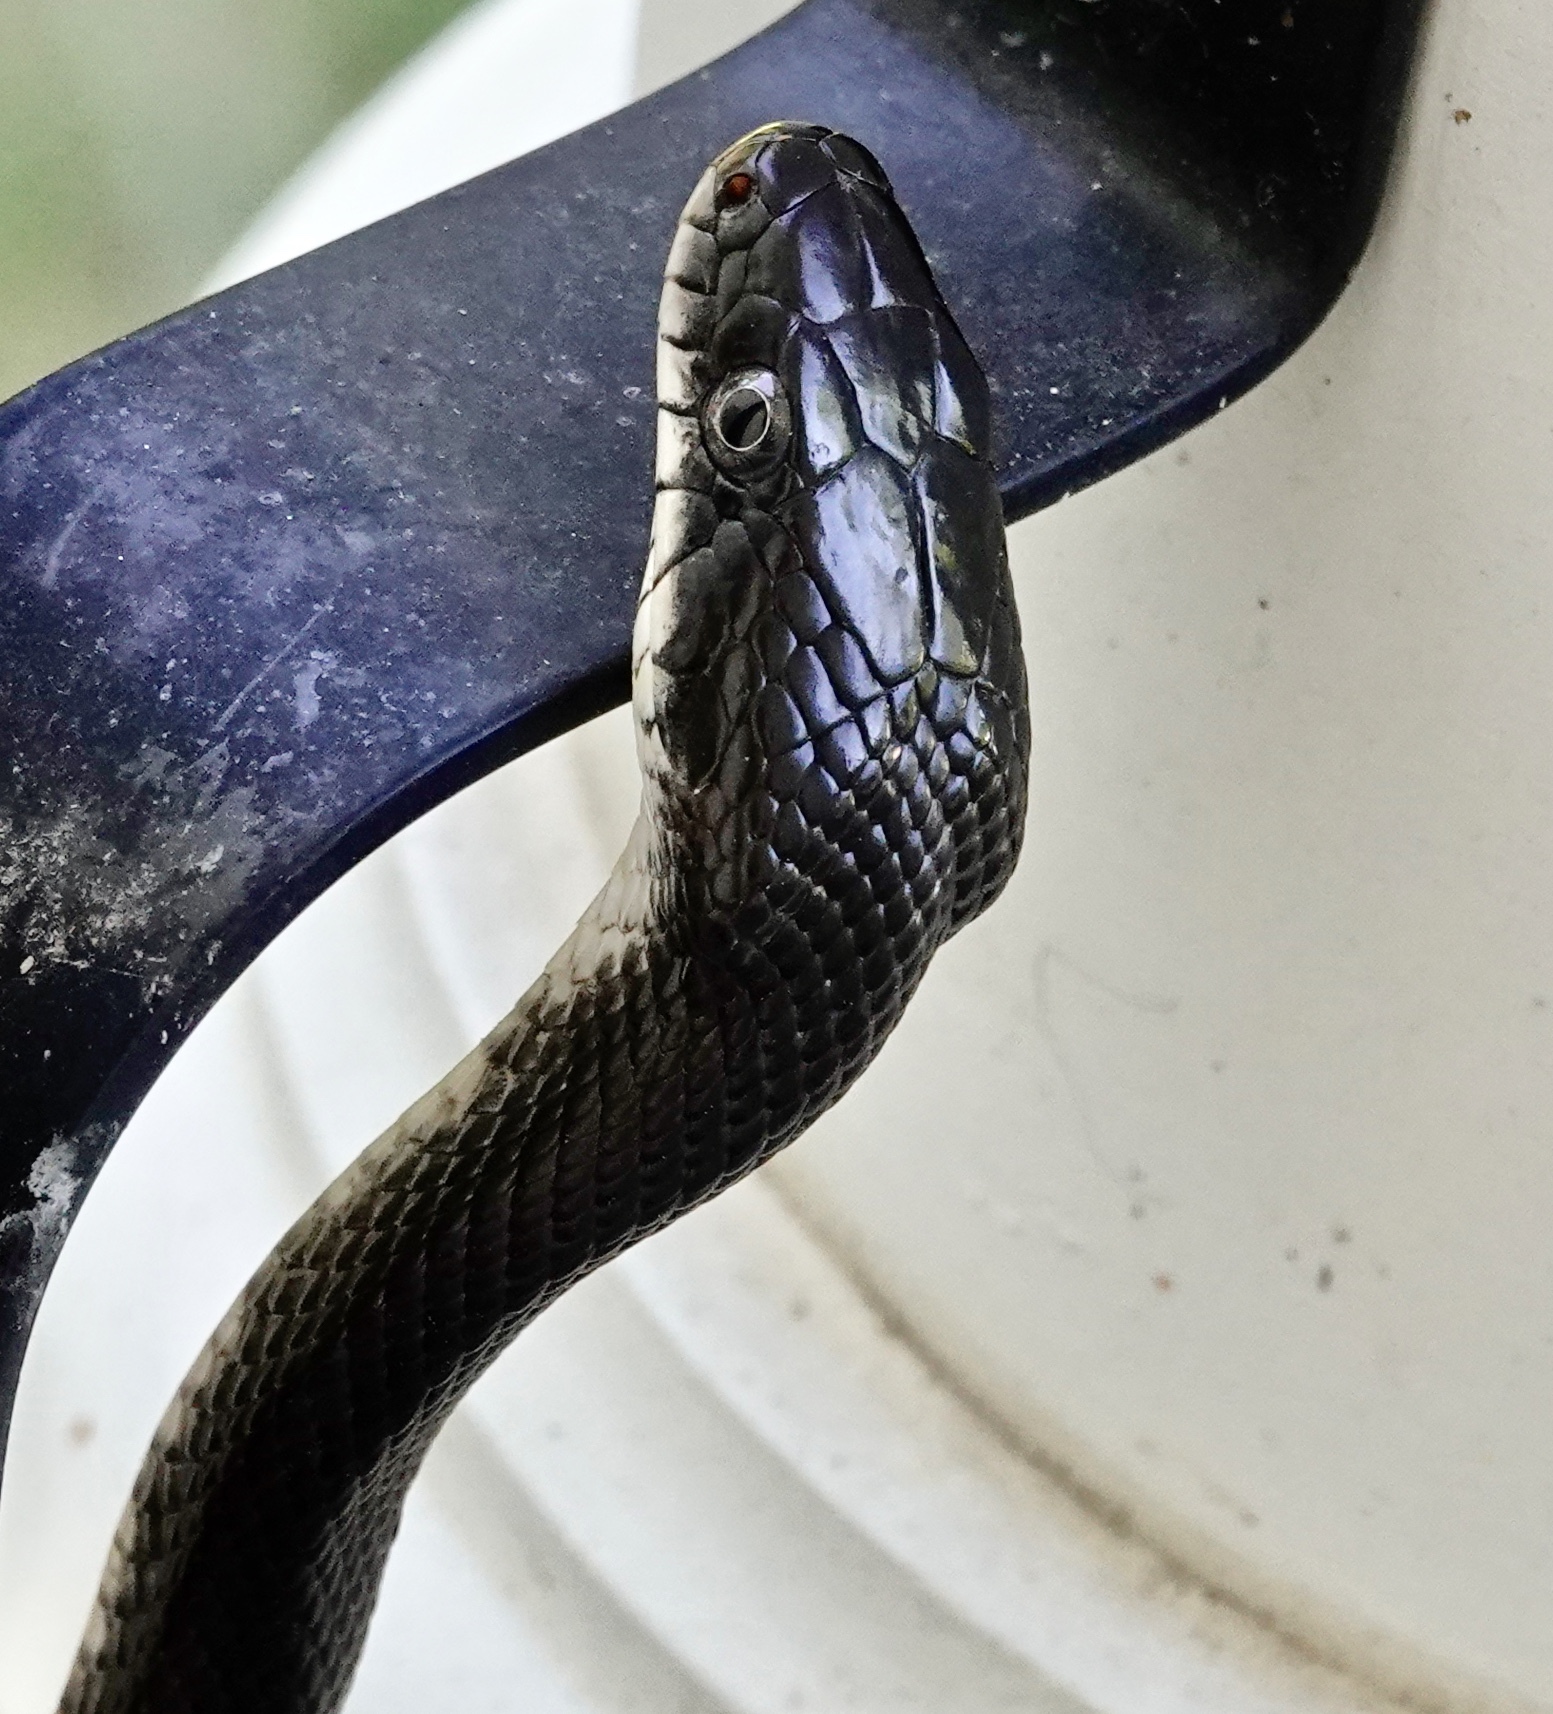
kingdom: Animalia
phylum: Chordata
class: Squamata
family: Colubridae
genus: Pantherophis
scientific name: Pantherophis alleghaniensis
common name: Eastern rat snake
